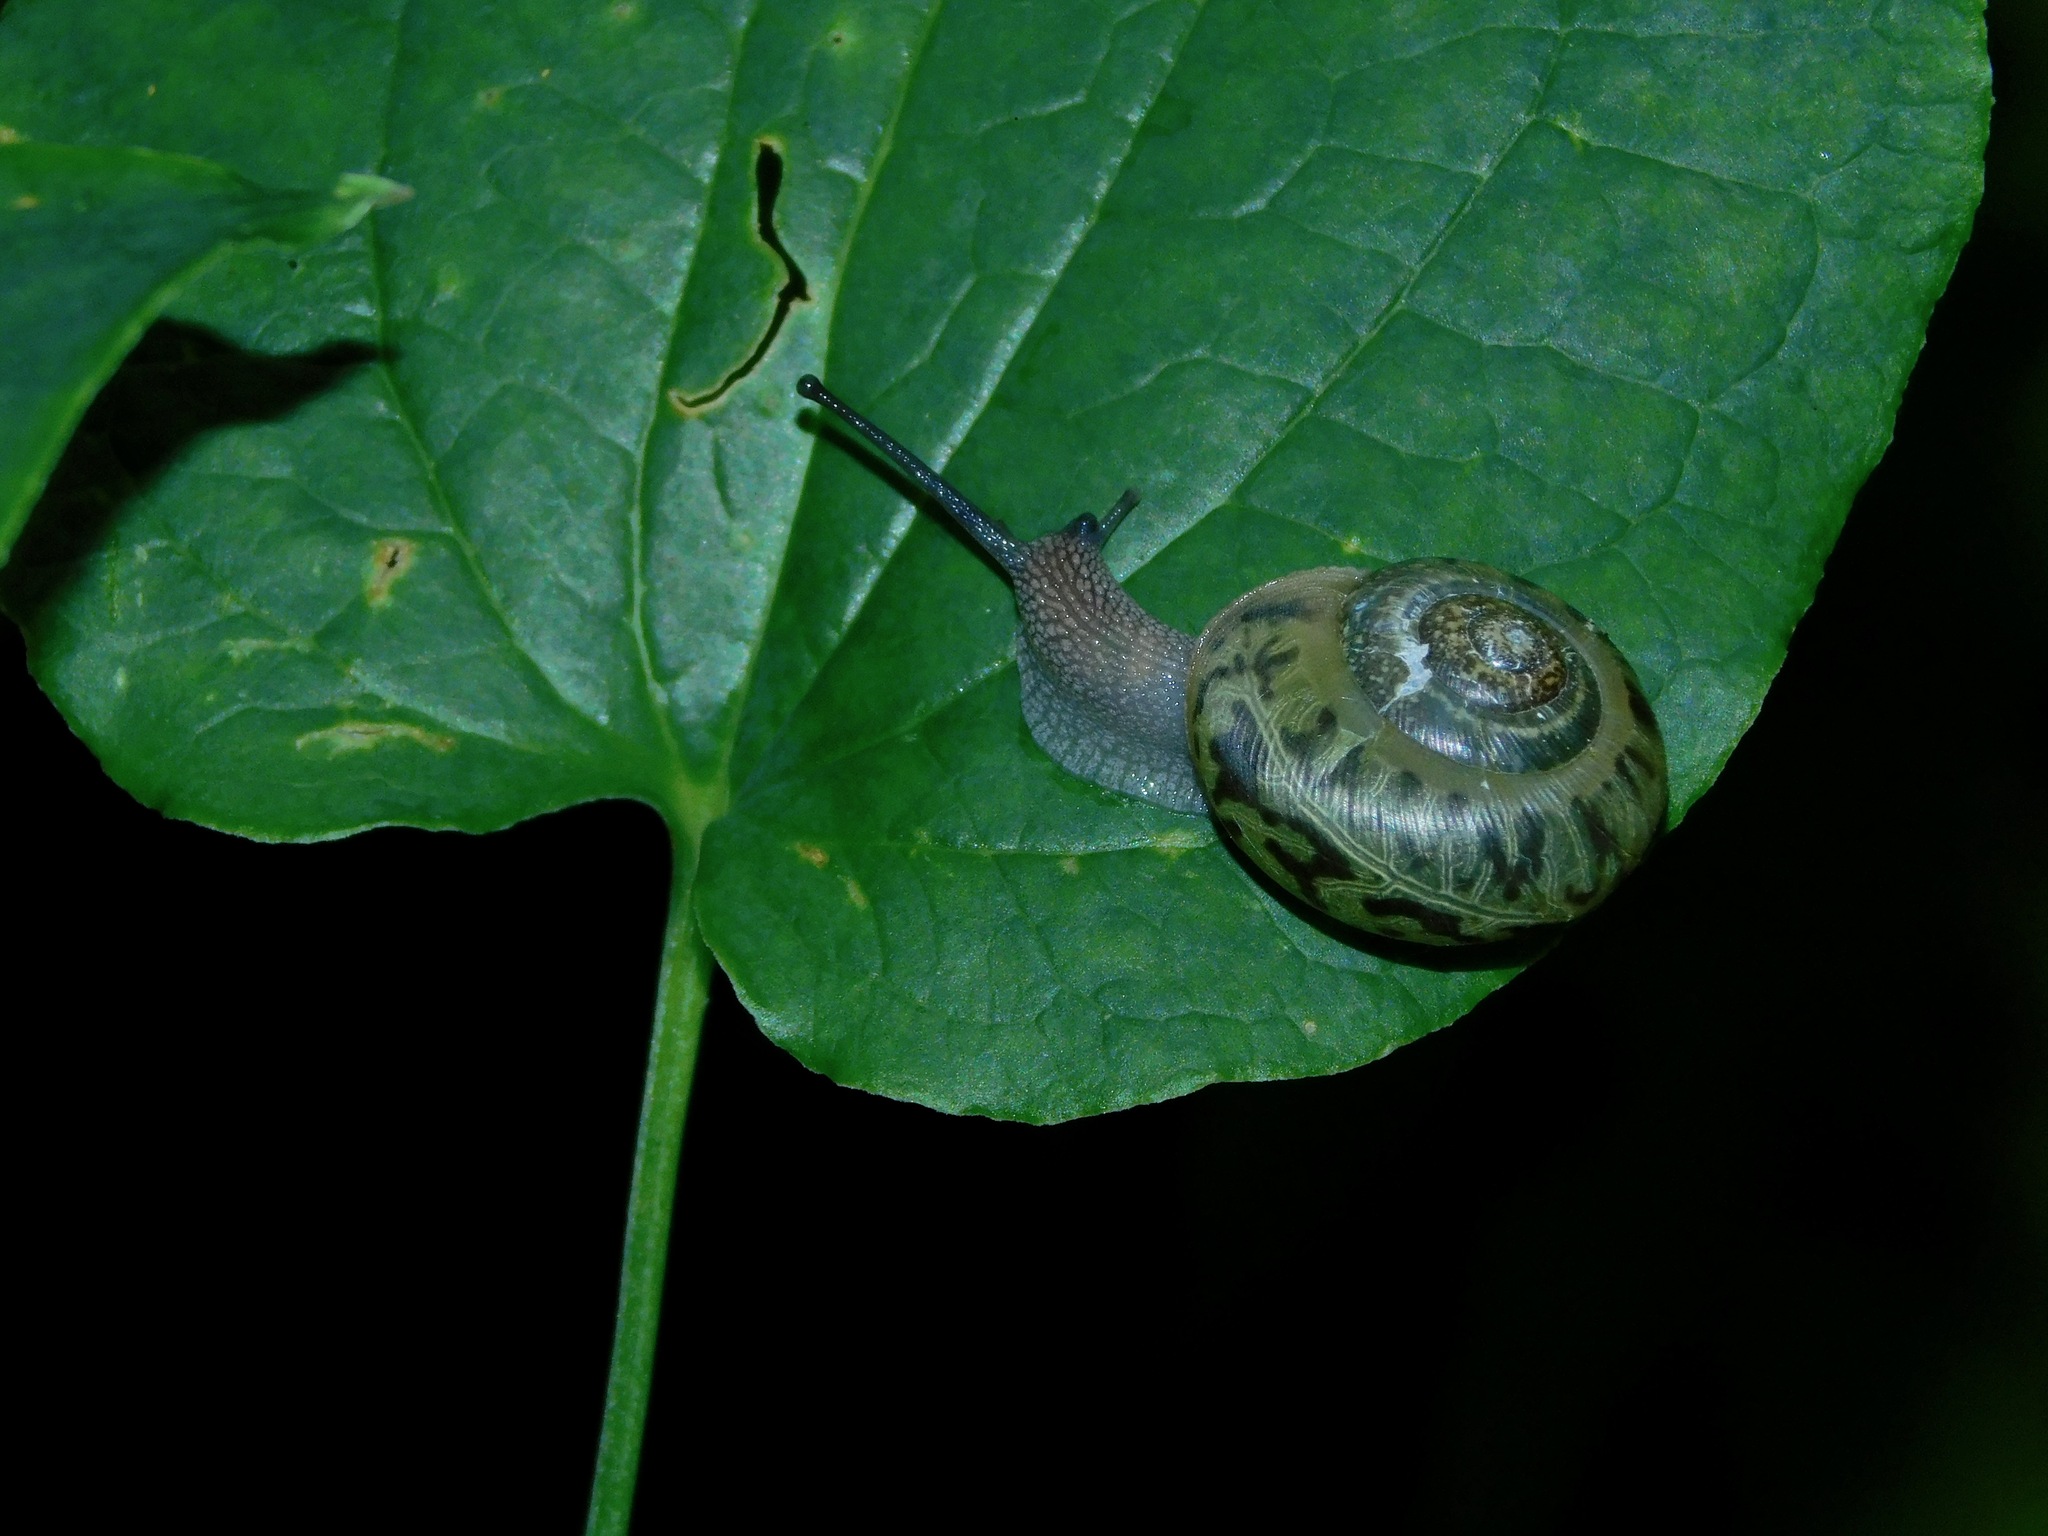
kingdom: Animalia
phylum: Mollusca
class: Gastropoda
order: Stylommatophora
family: Polygyridae
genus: Mesodon
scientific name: Mesodon normalis
